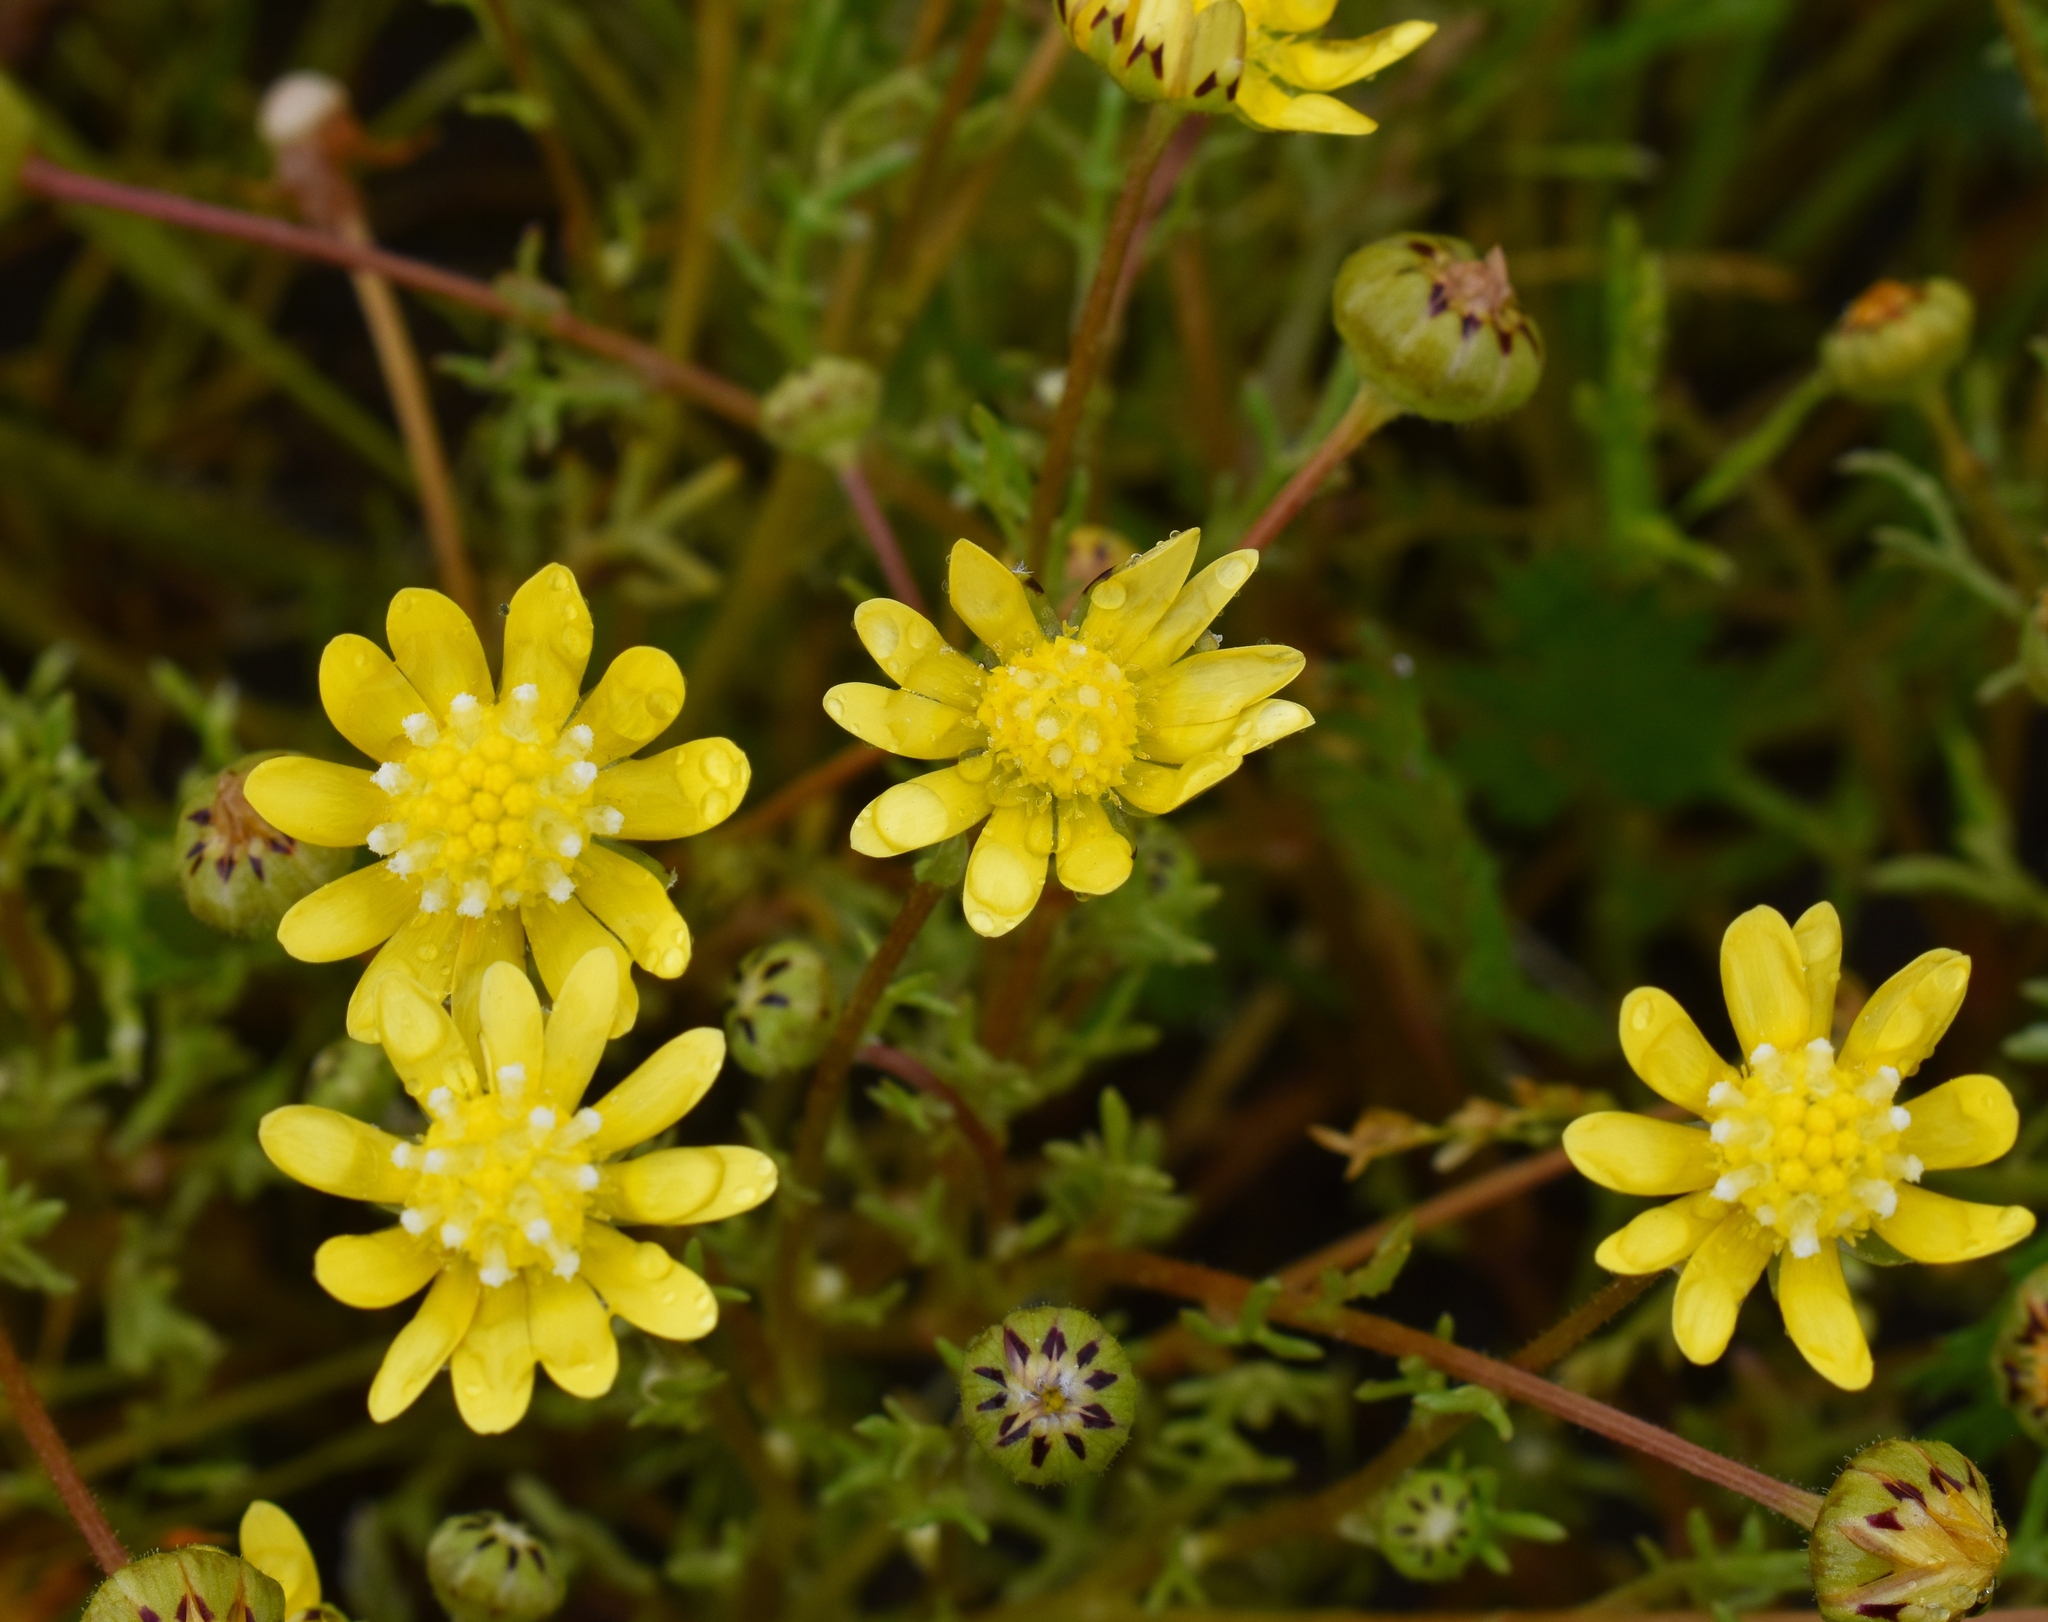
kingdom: Plantae
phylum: Tracheophyta
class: Magnoliopsida
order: Asterales
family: Asteraceae
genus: Blennosperma
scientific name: Blennosperma nanum
